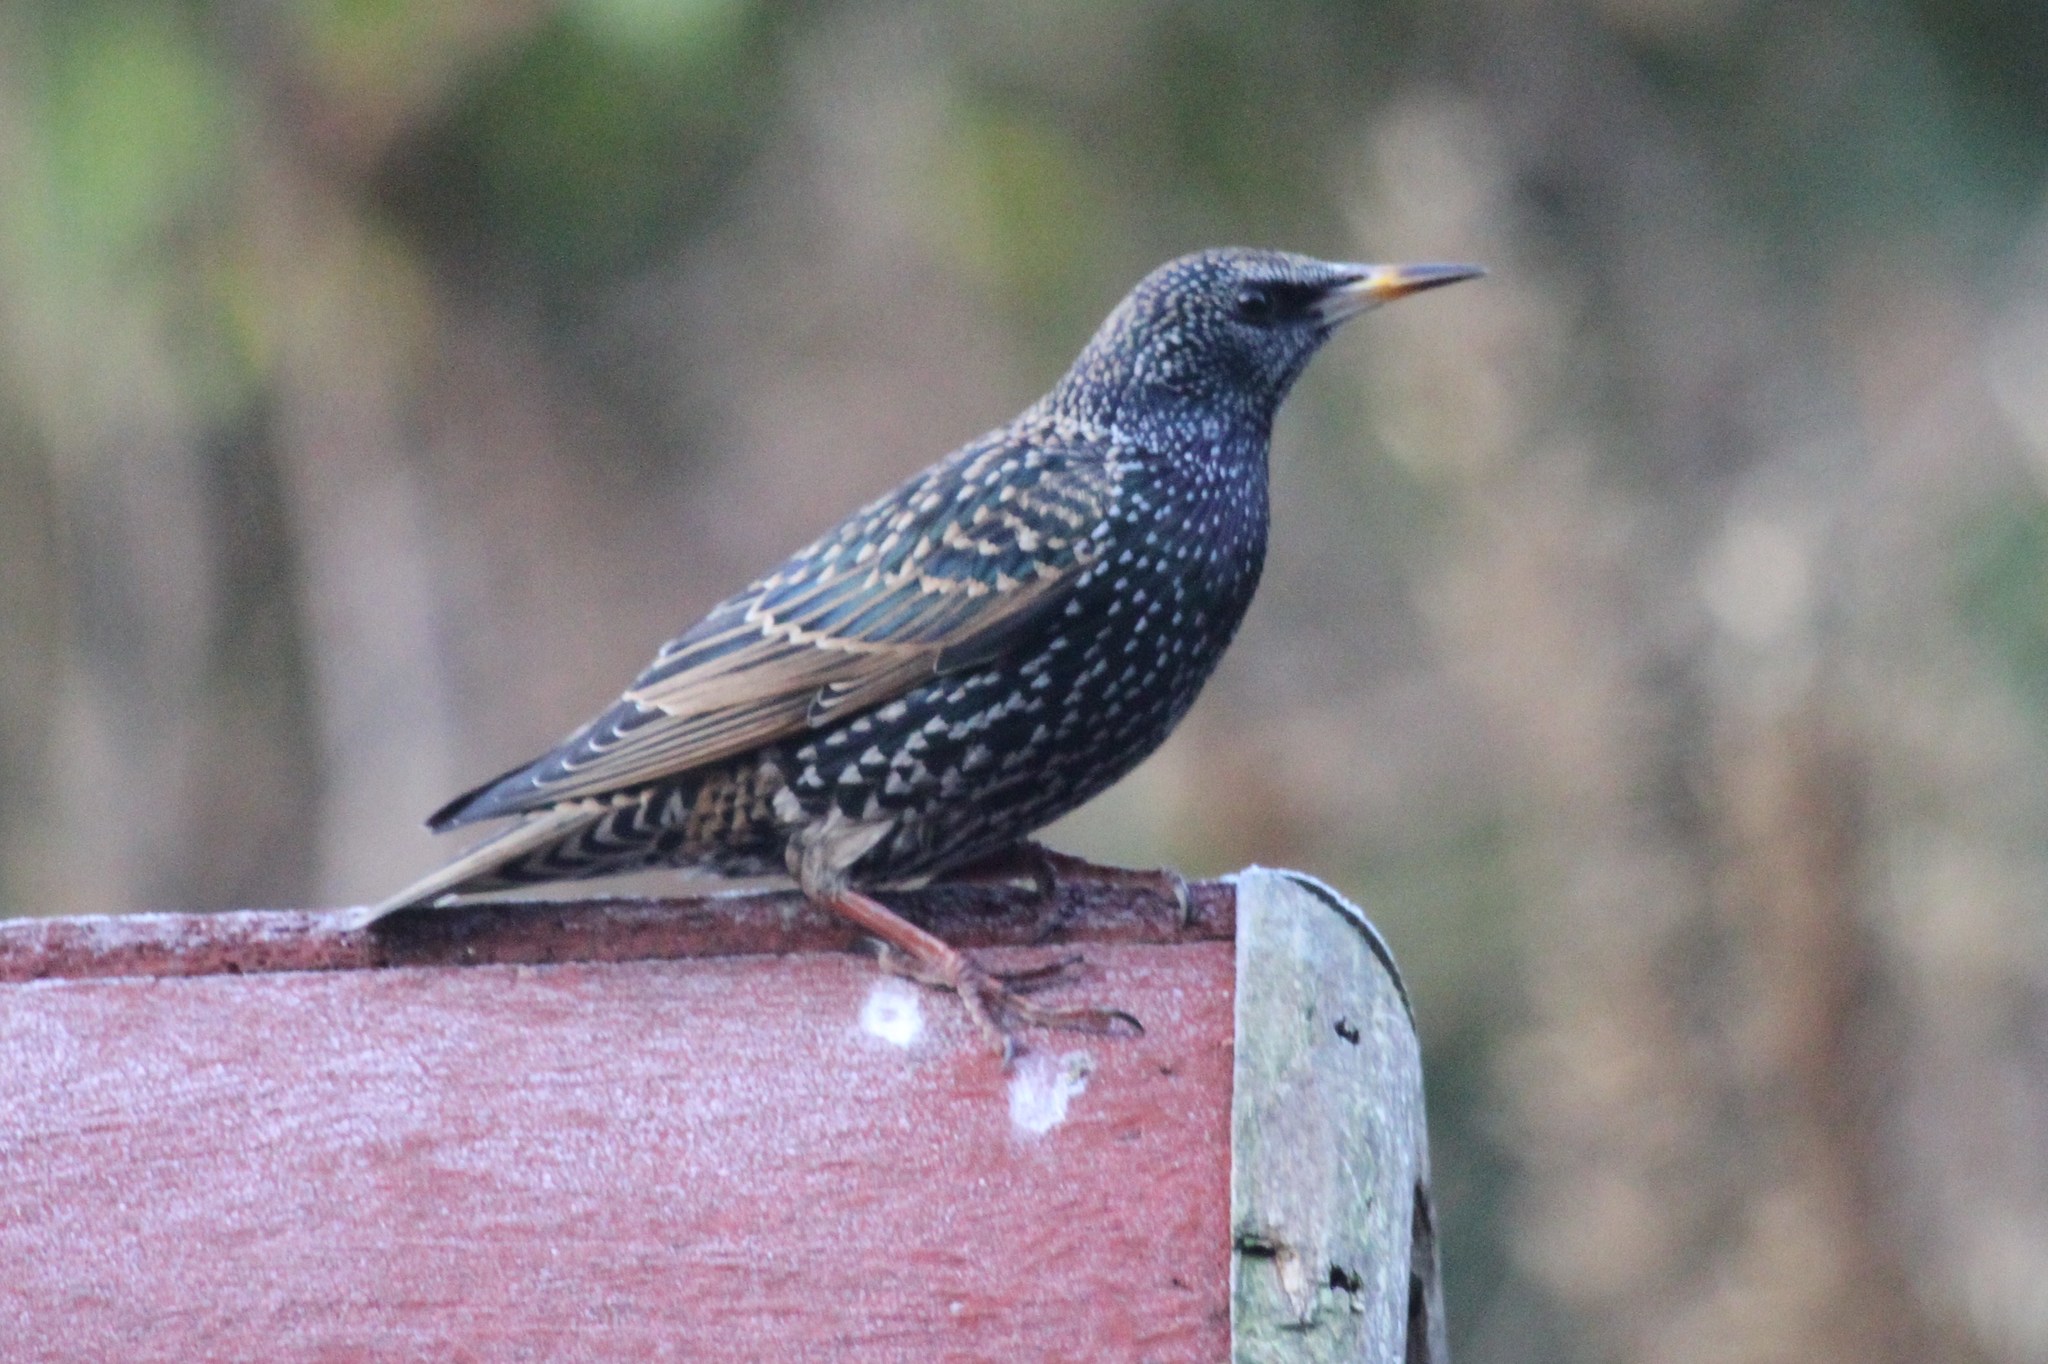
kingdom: Animalia
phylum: Chordata
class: Aves
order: Passeriformes
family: Sturnidae
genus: Sturnus
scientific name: Sturnus vulgaris
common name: Common starling
